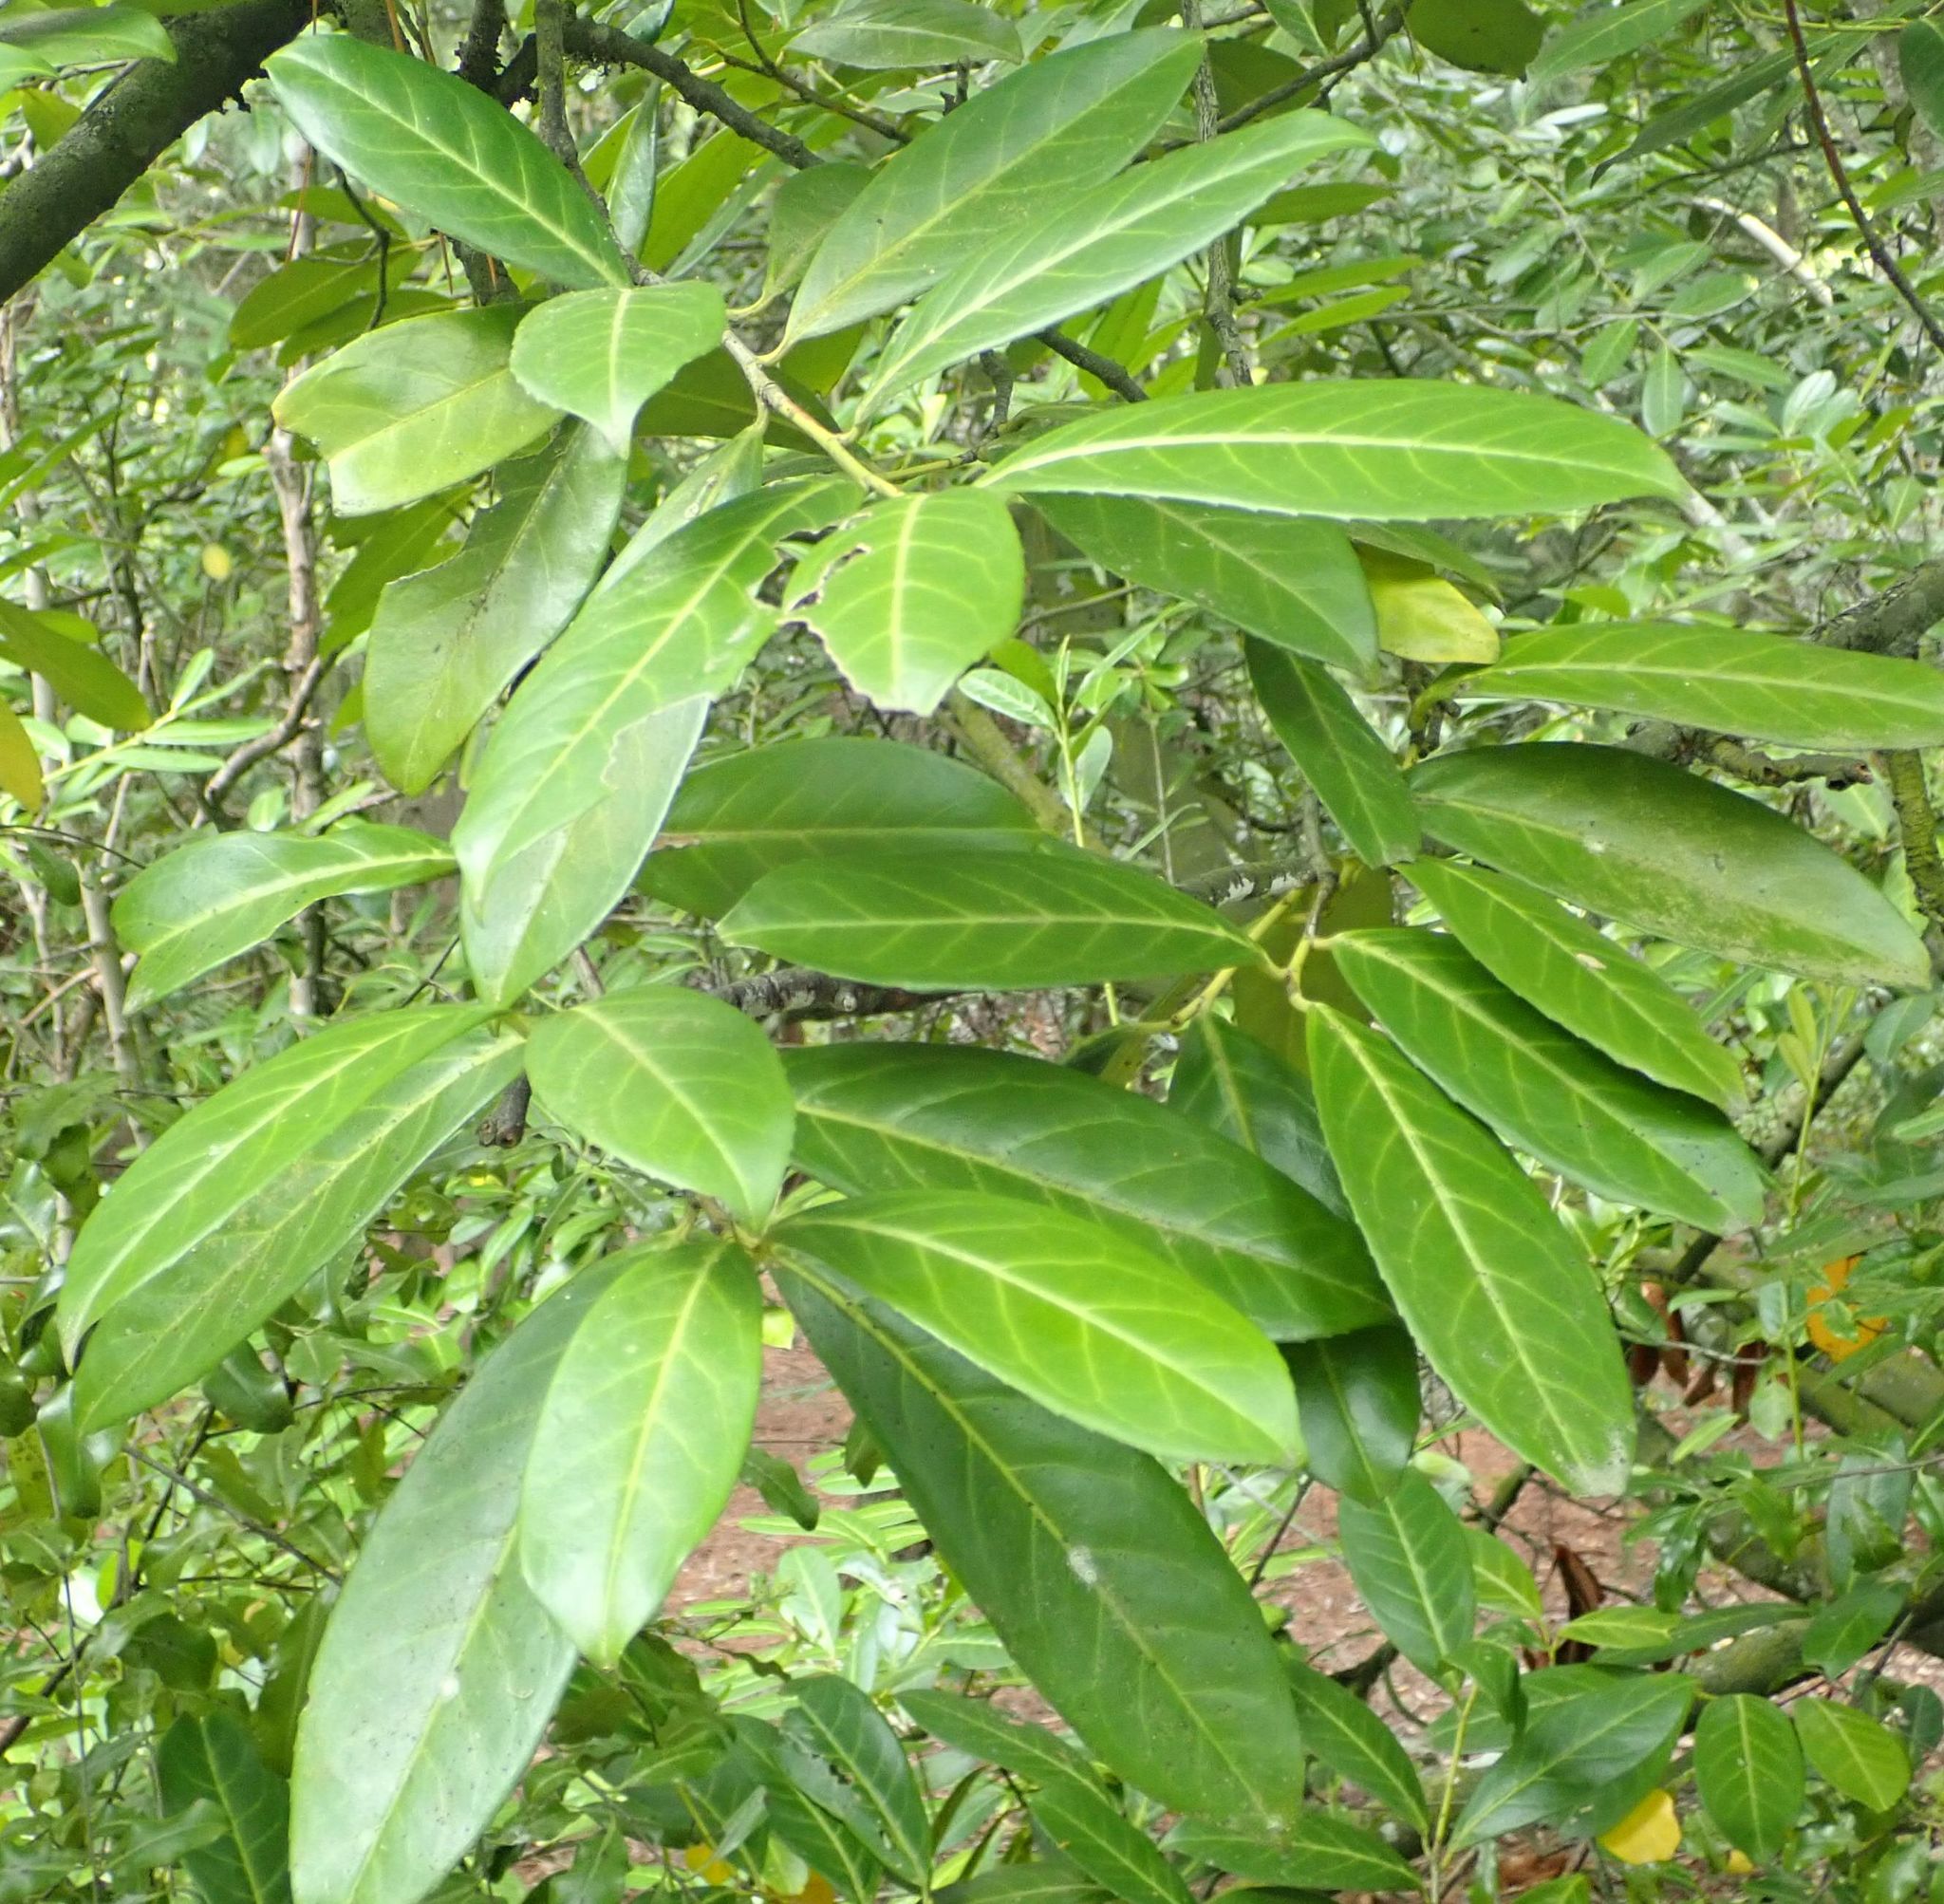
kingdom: Plantae
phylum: Tracheophyta
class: Magnoliopsida
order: Rosales
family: Rosaceae
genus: Prunus
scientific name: Prunus laurocerasus
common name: Cherry laurel
